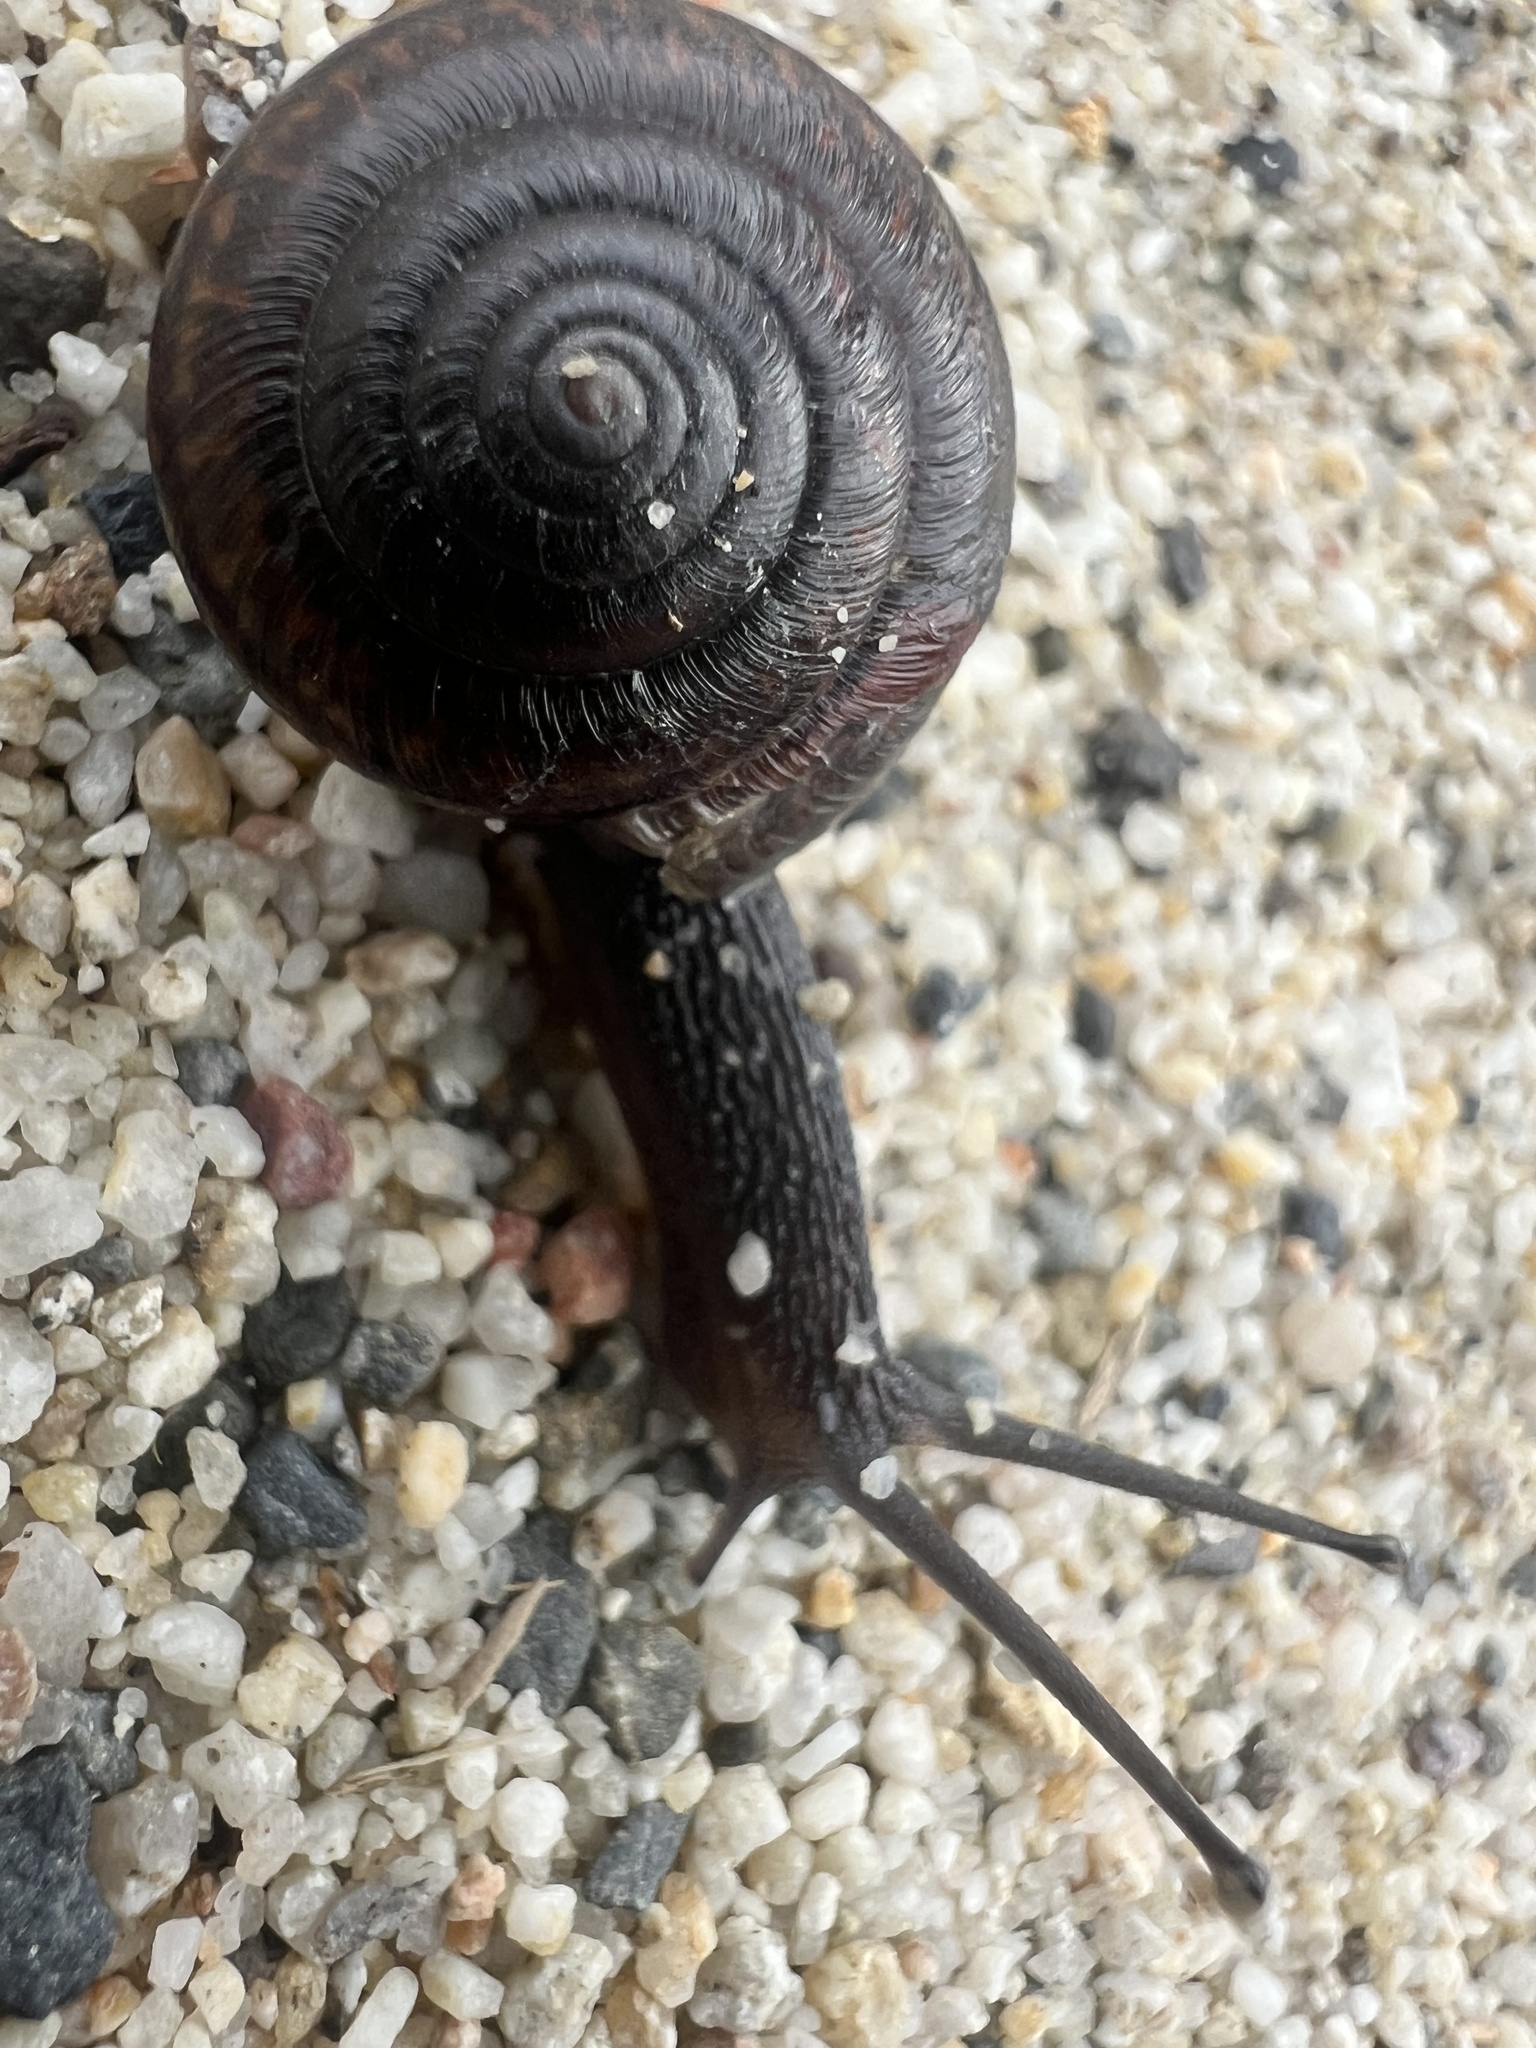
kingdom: Animalia
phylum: Mollusca
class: Gastropoda
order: Stylommatophora
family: Xanthonychidae
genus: Helminthoglypta
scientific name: Helminthoglypta sequoicola
